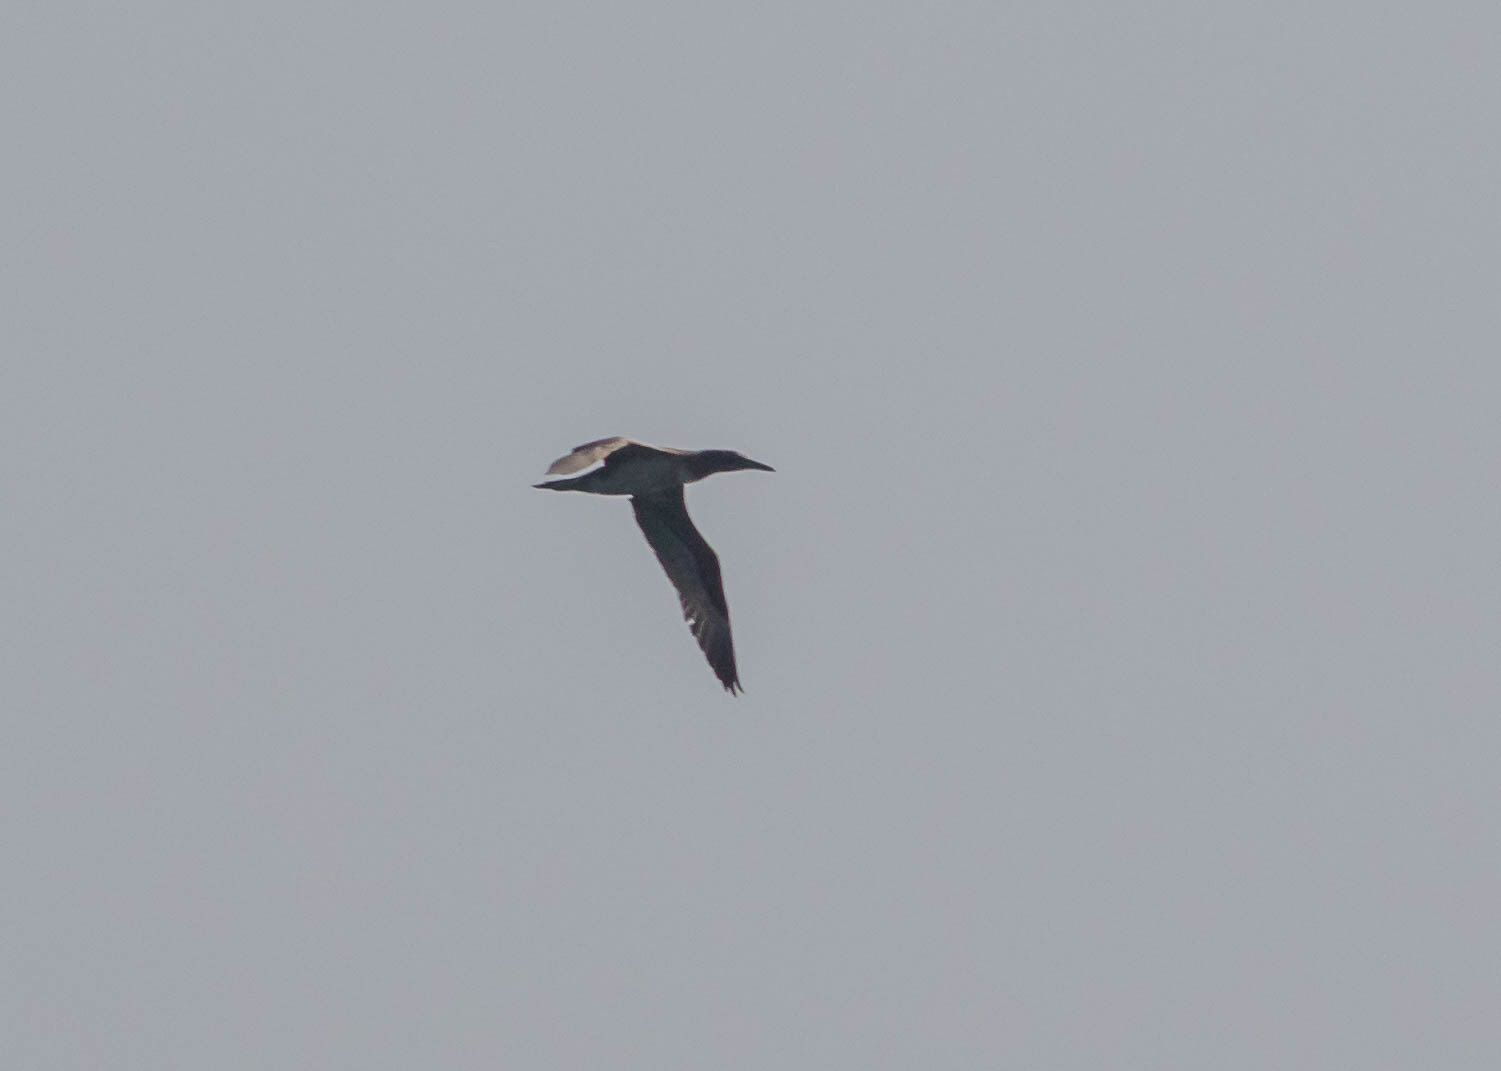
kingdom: Animalia
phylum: Chordata
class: Aves
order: Suliformes
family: Sulidae
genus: Morus
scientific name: Morus bassanus
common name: Northern gannet
